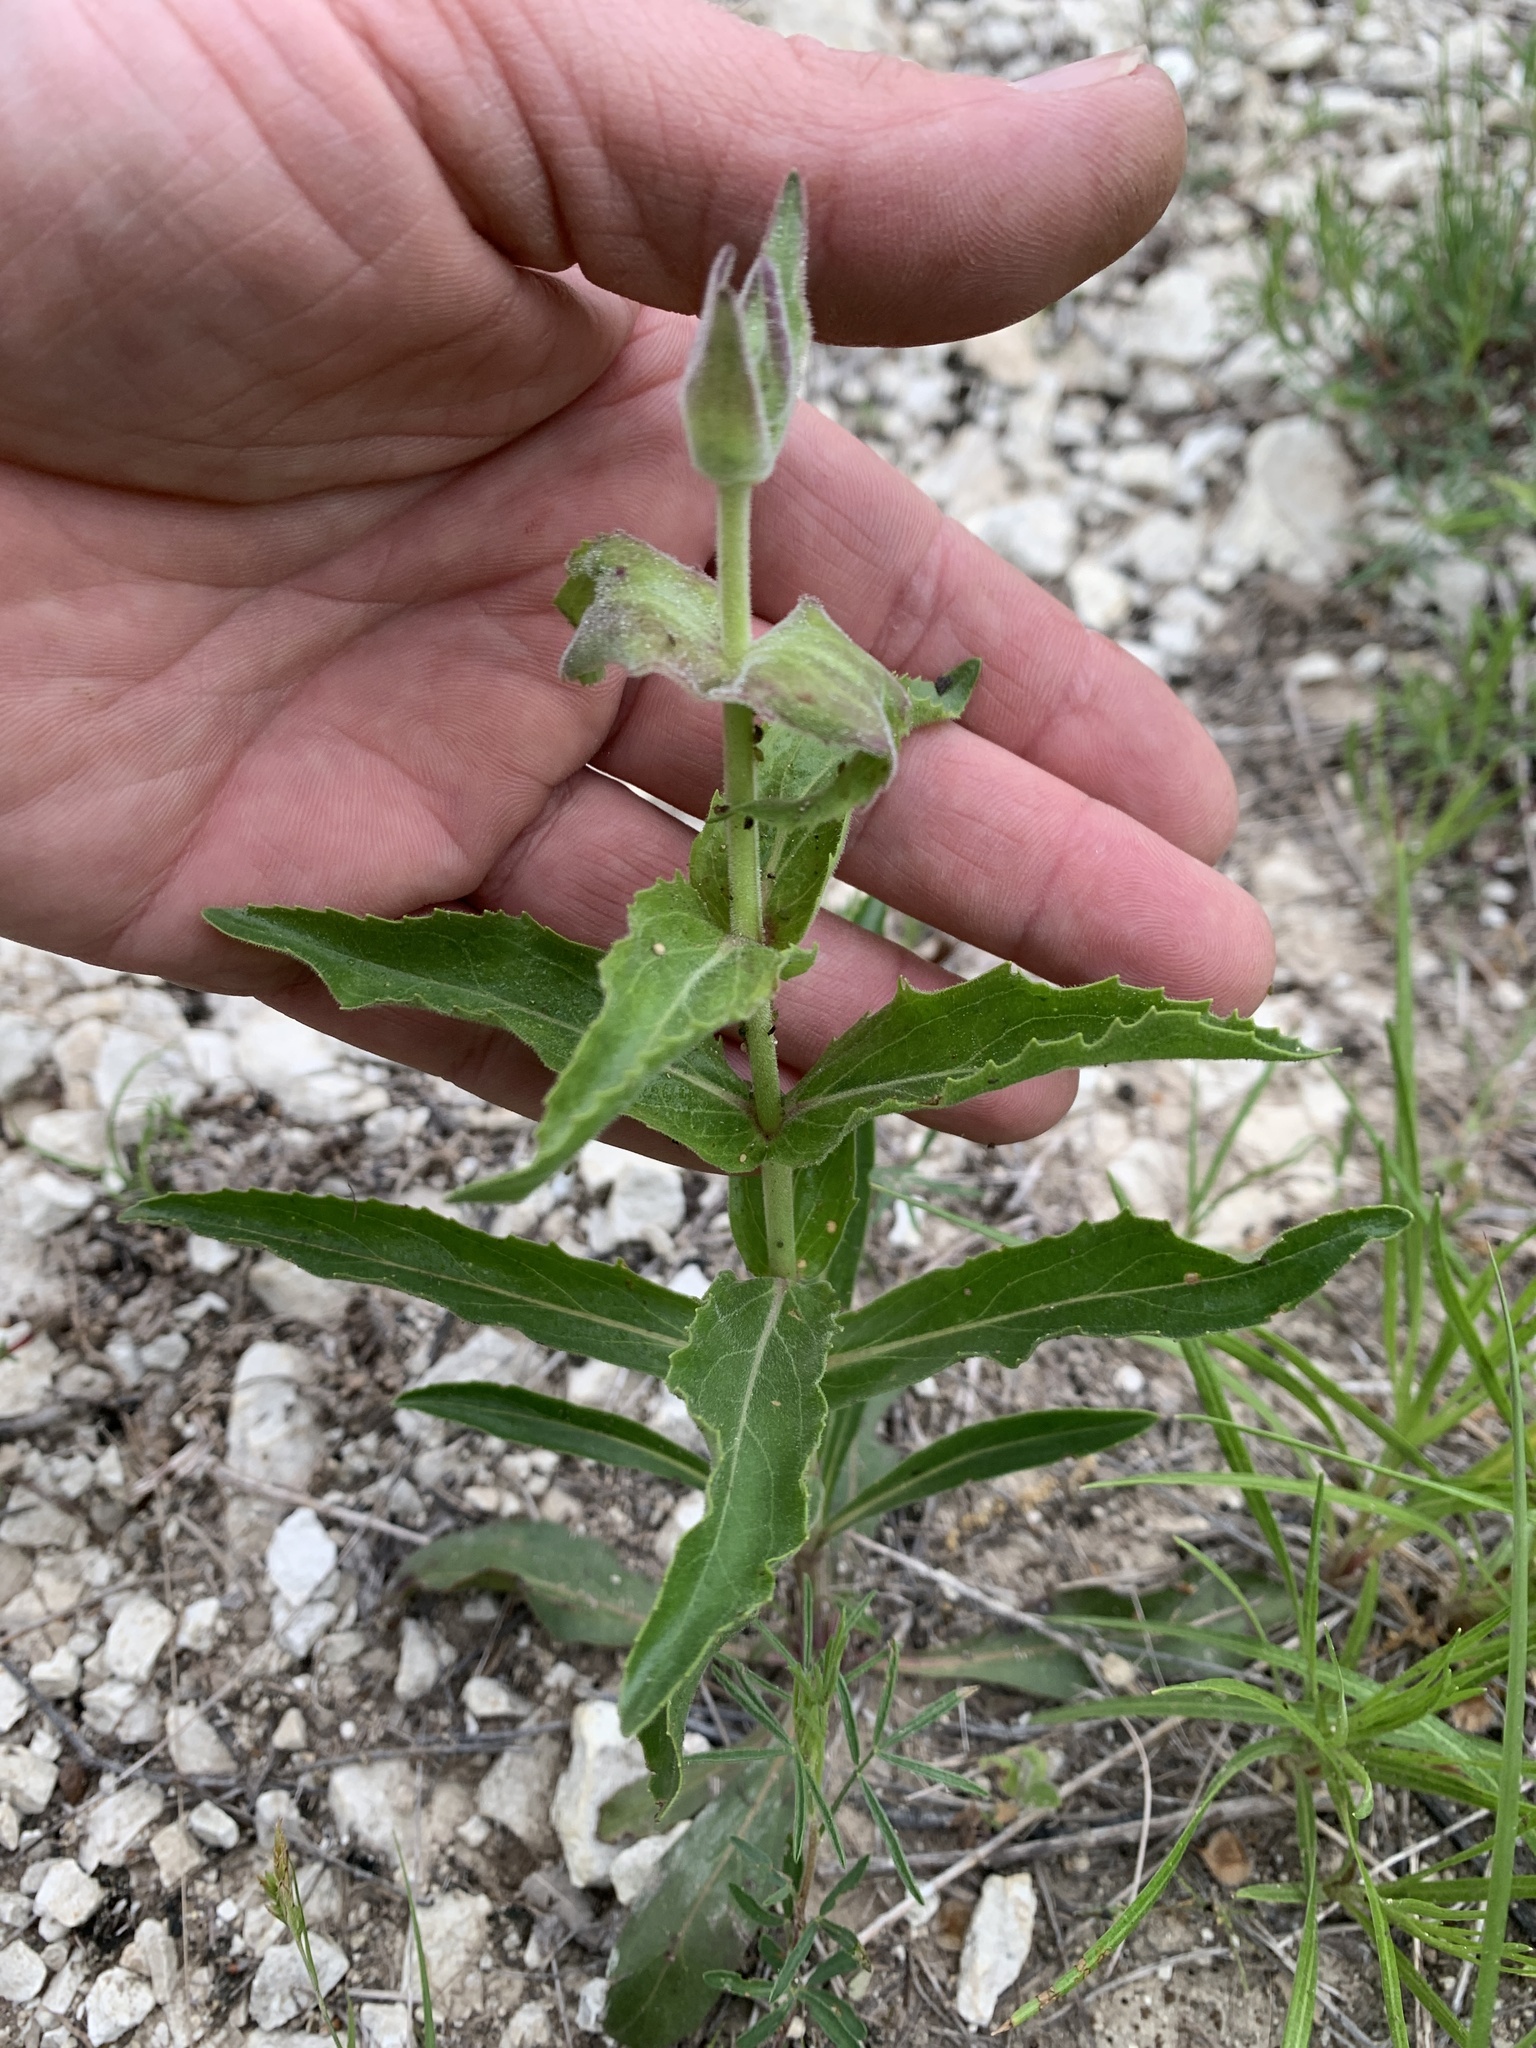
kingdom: Plantae
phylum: Tracheophyta
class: Magnoliopsida
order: Lamiales
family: Plantaginaceae
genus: Penstemon
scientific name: Penstemon cobaea
